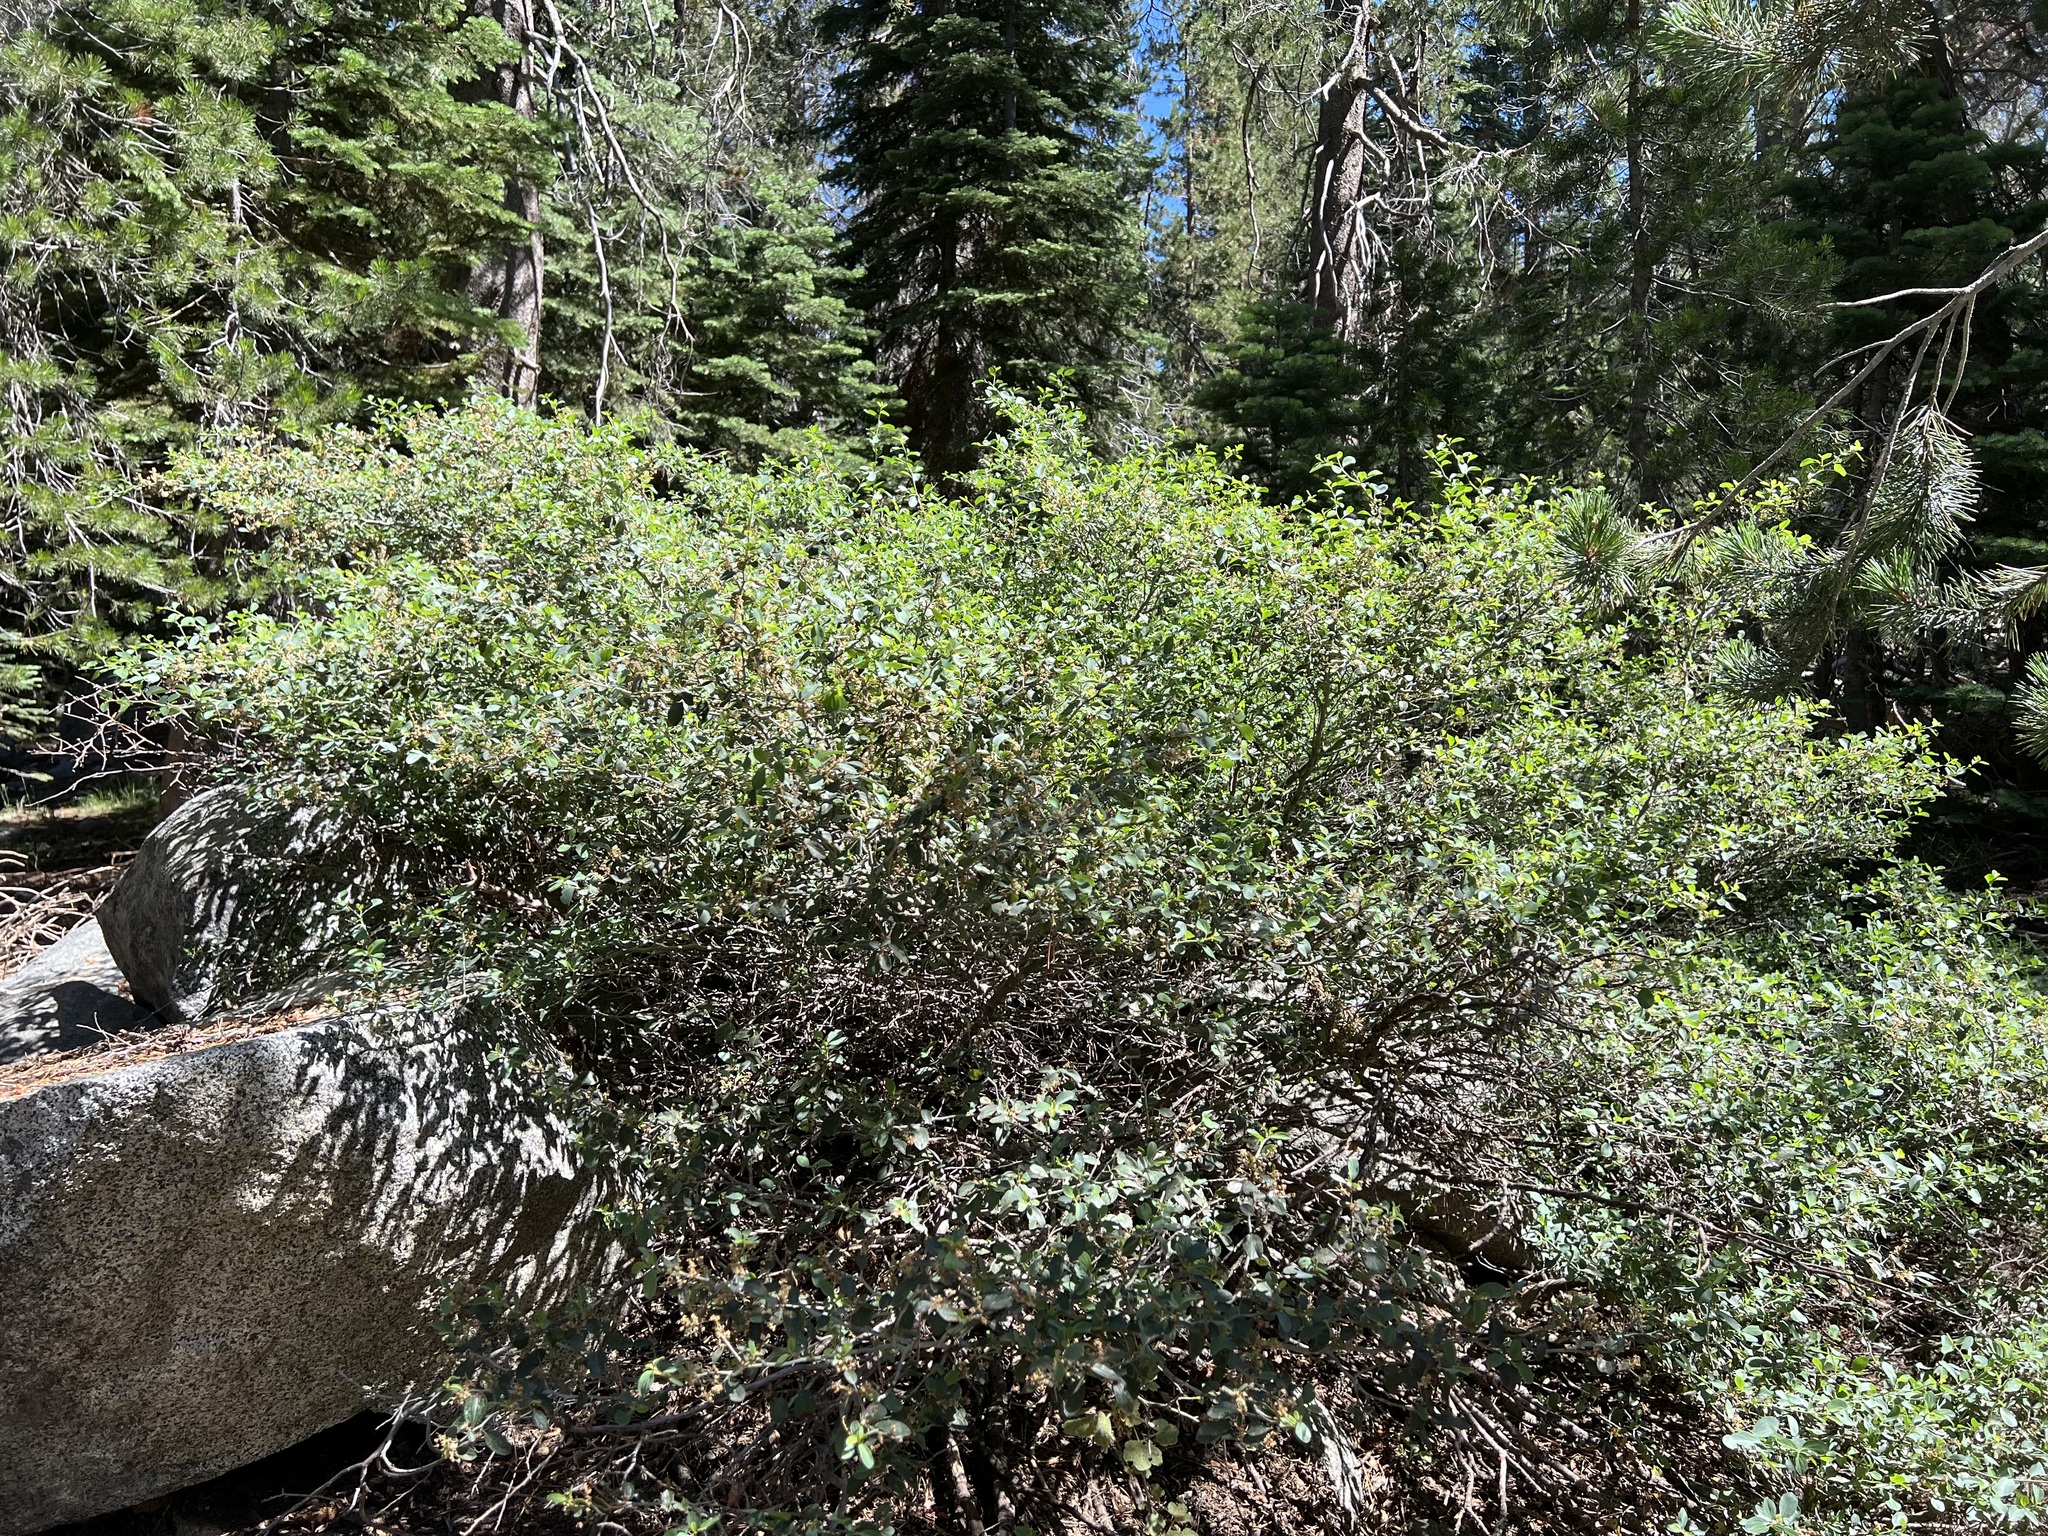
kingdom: Plantae
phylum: Tracheophyta
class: Magnoliopsida
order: Rosales
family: Rhamnaceae
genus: Ceanothus
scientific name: Ceanothus cordulatus
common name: Mountain whitethorn
